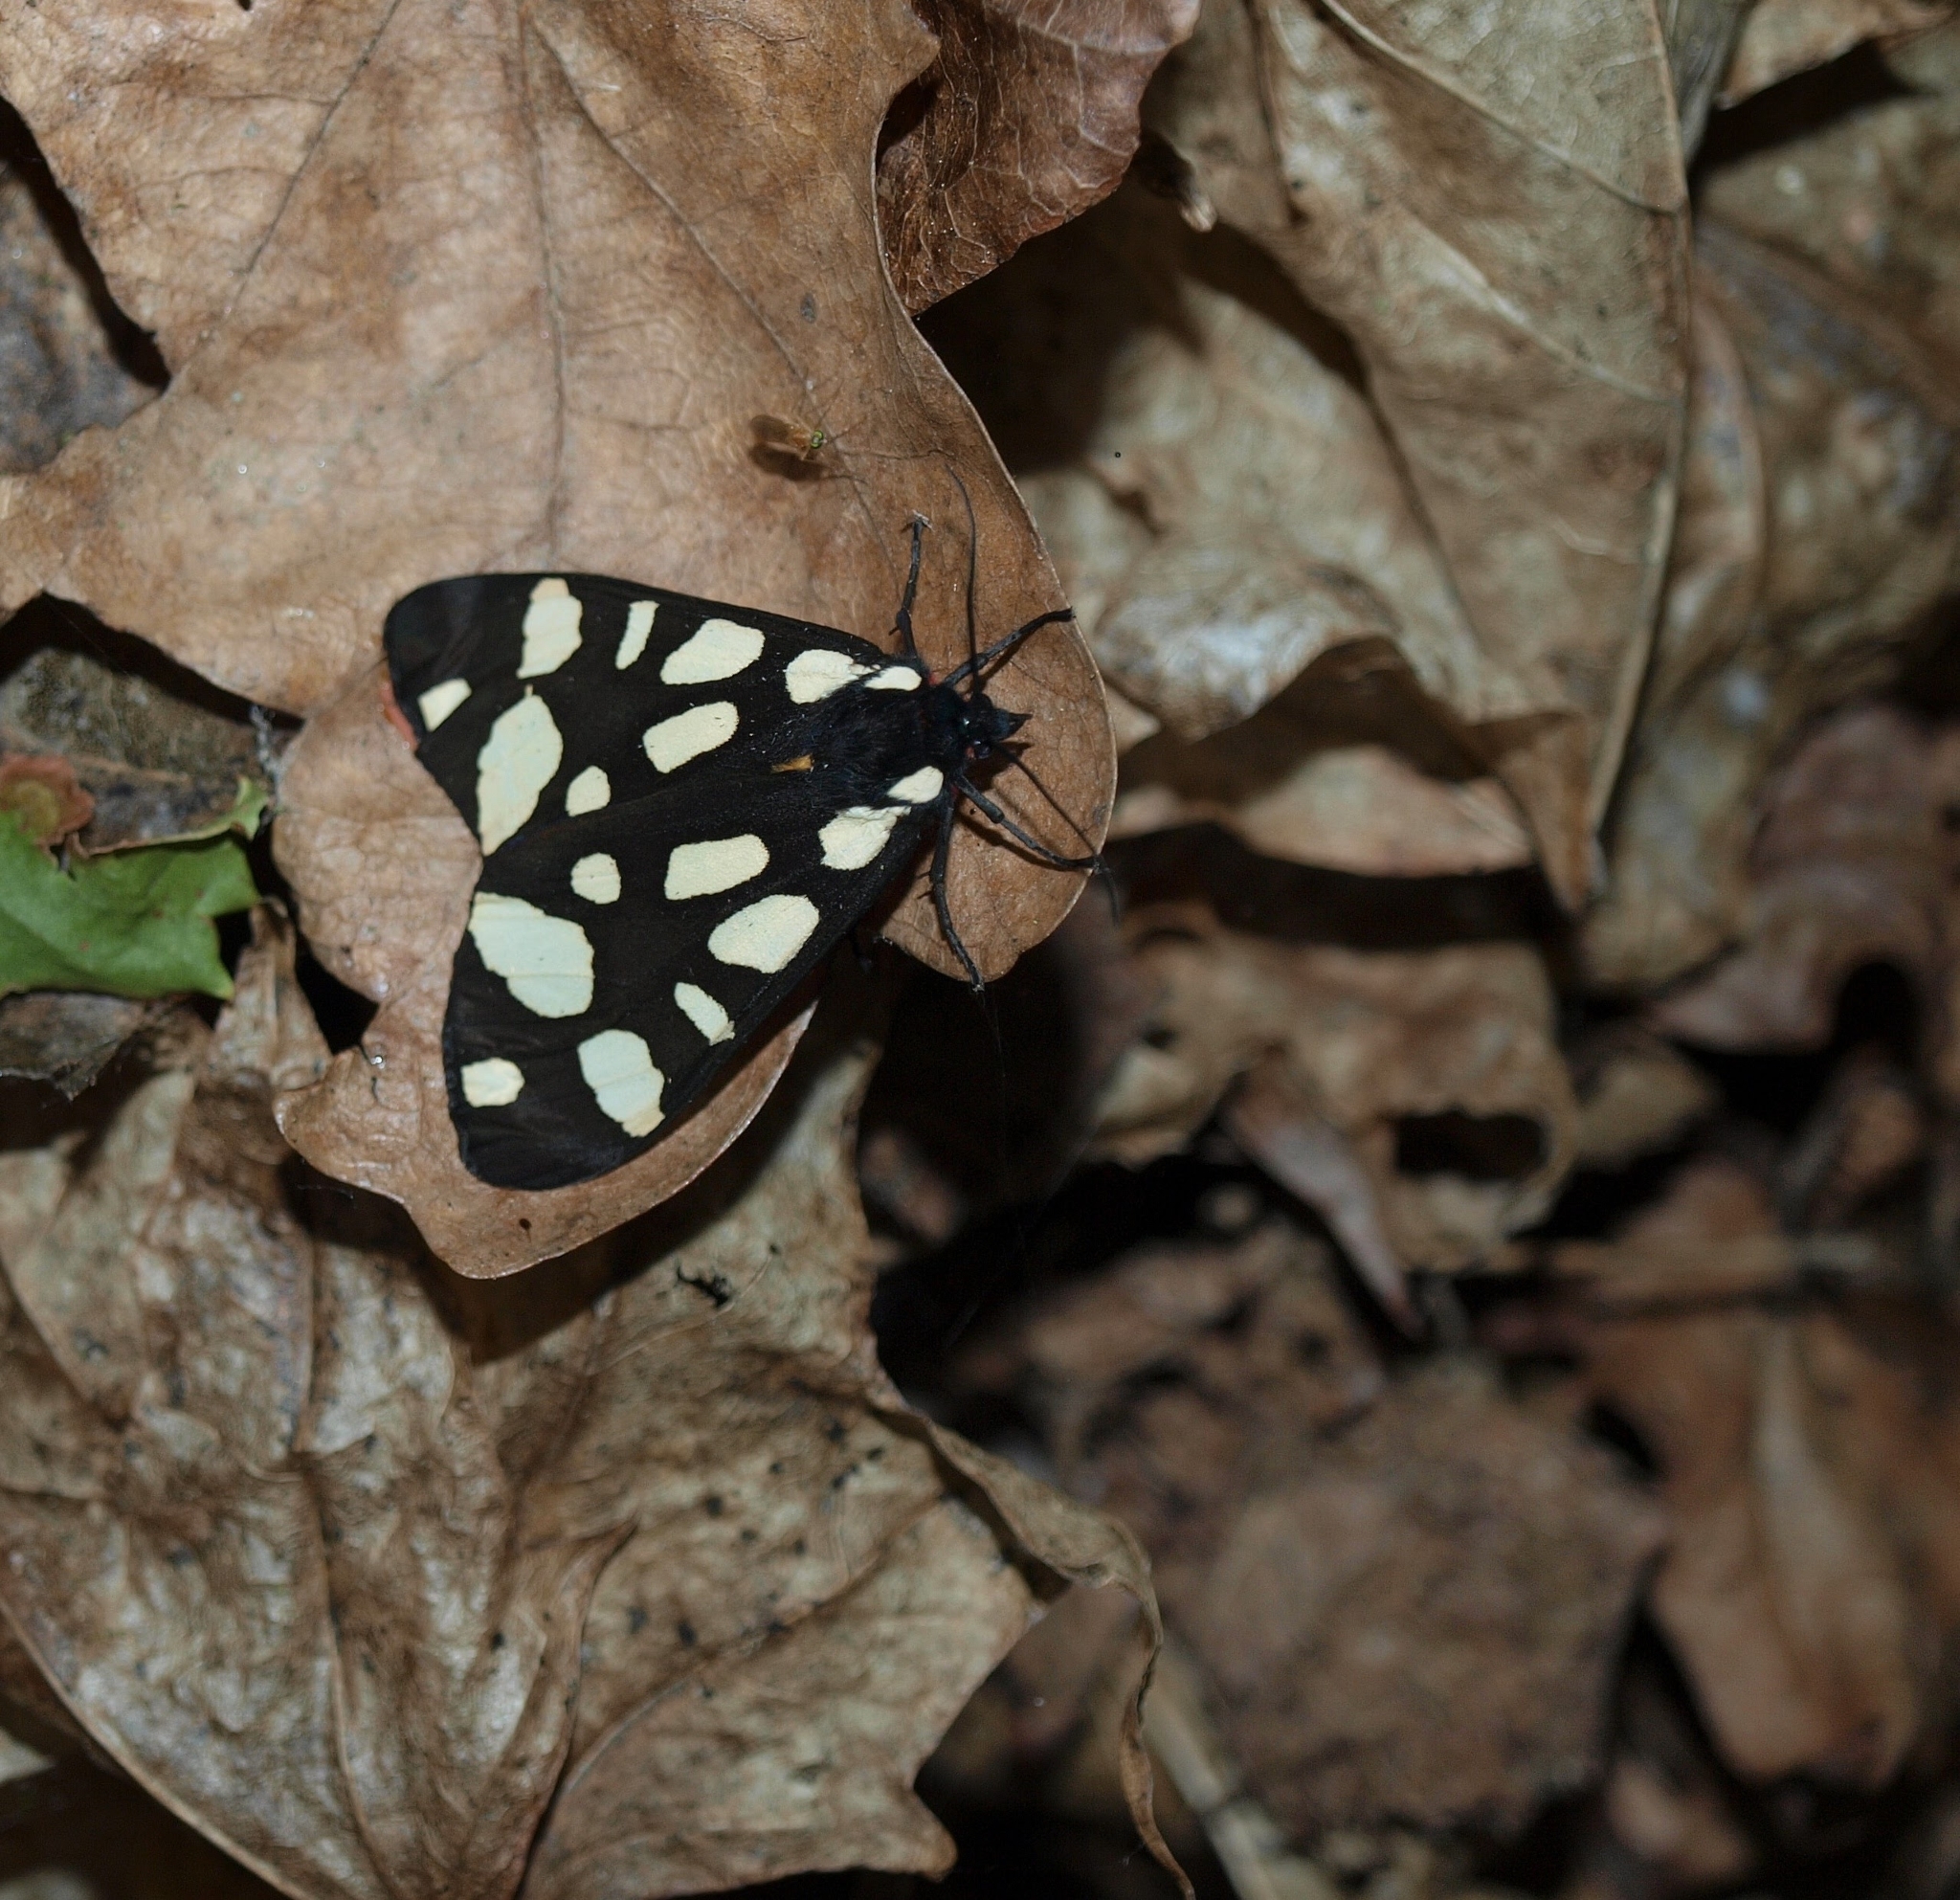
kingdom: Animalia
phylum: Arthropoda
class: Insecta
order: Lepidoptera
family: Erebidae
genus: Epicallia
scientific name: Epicallia villica
